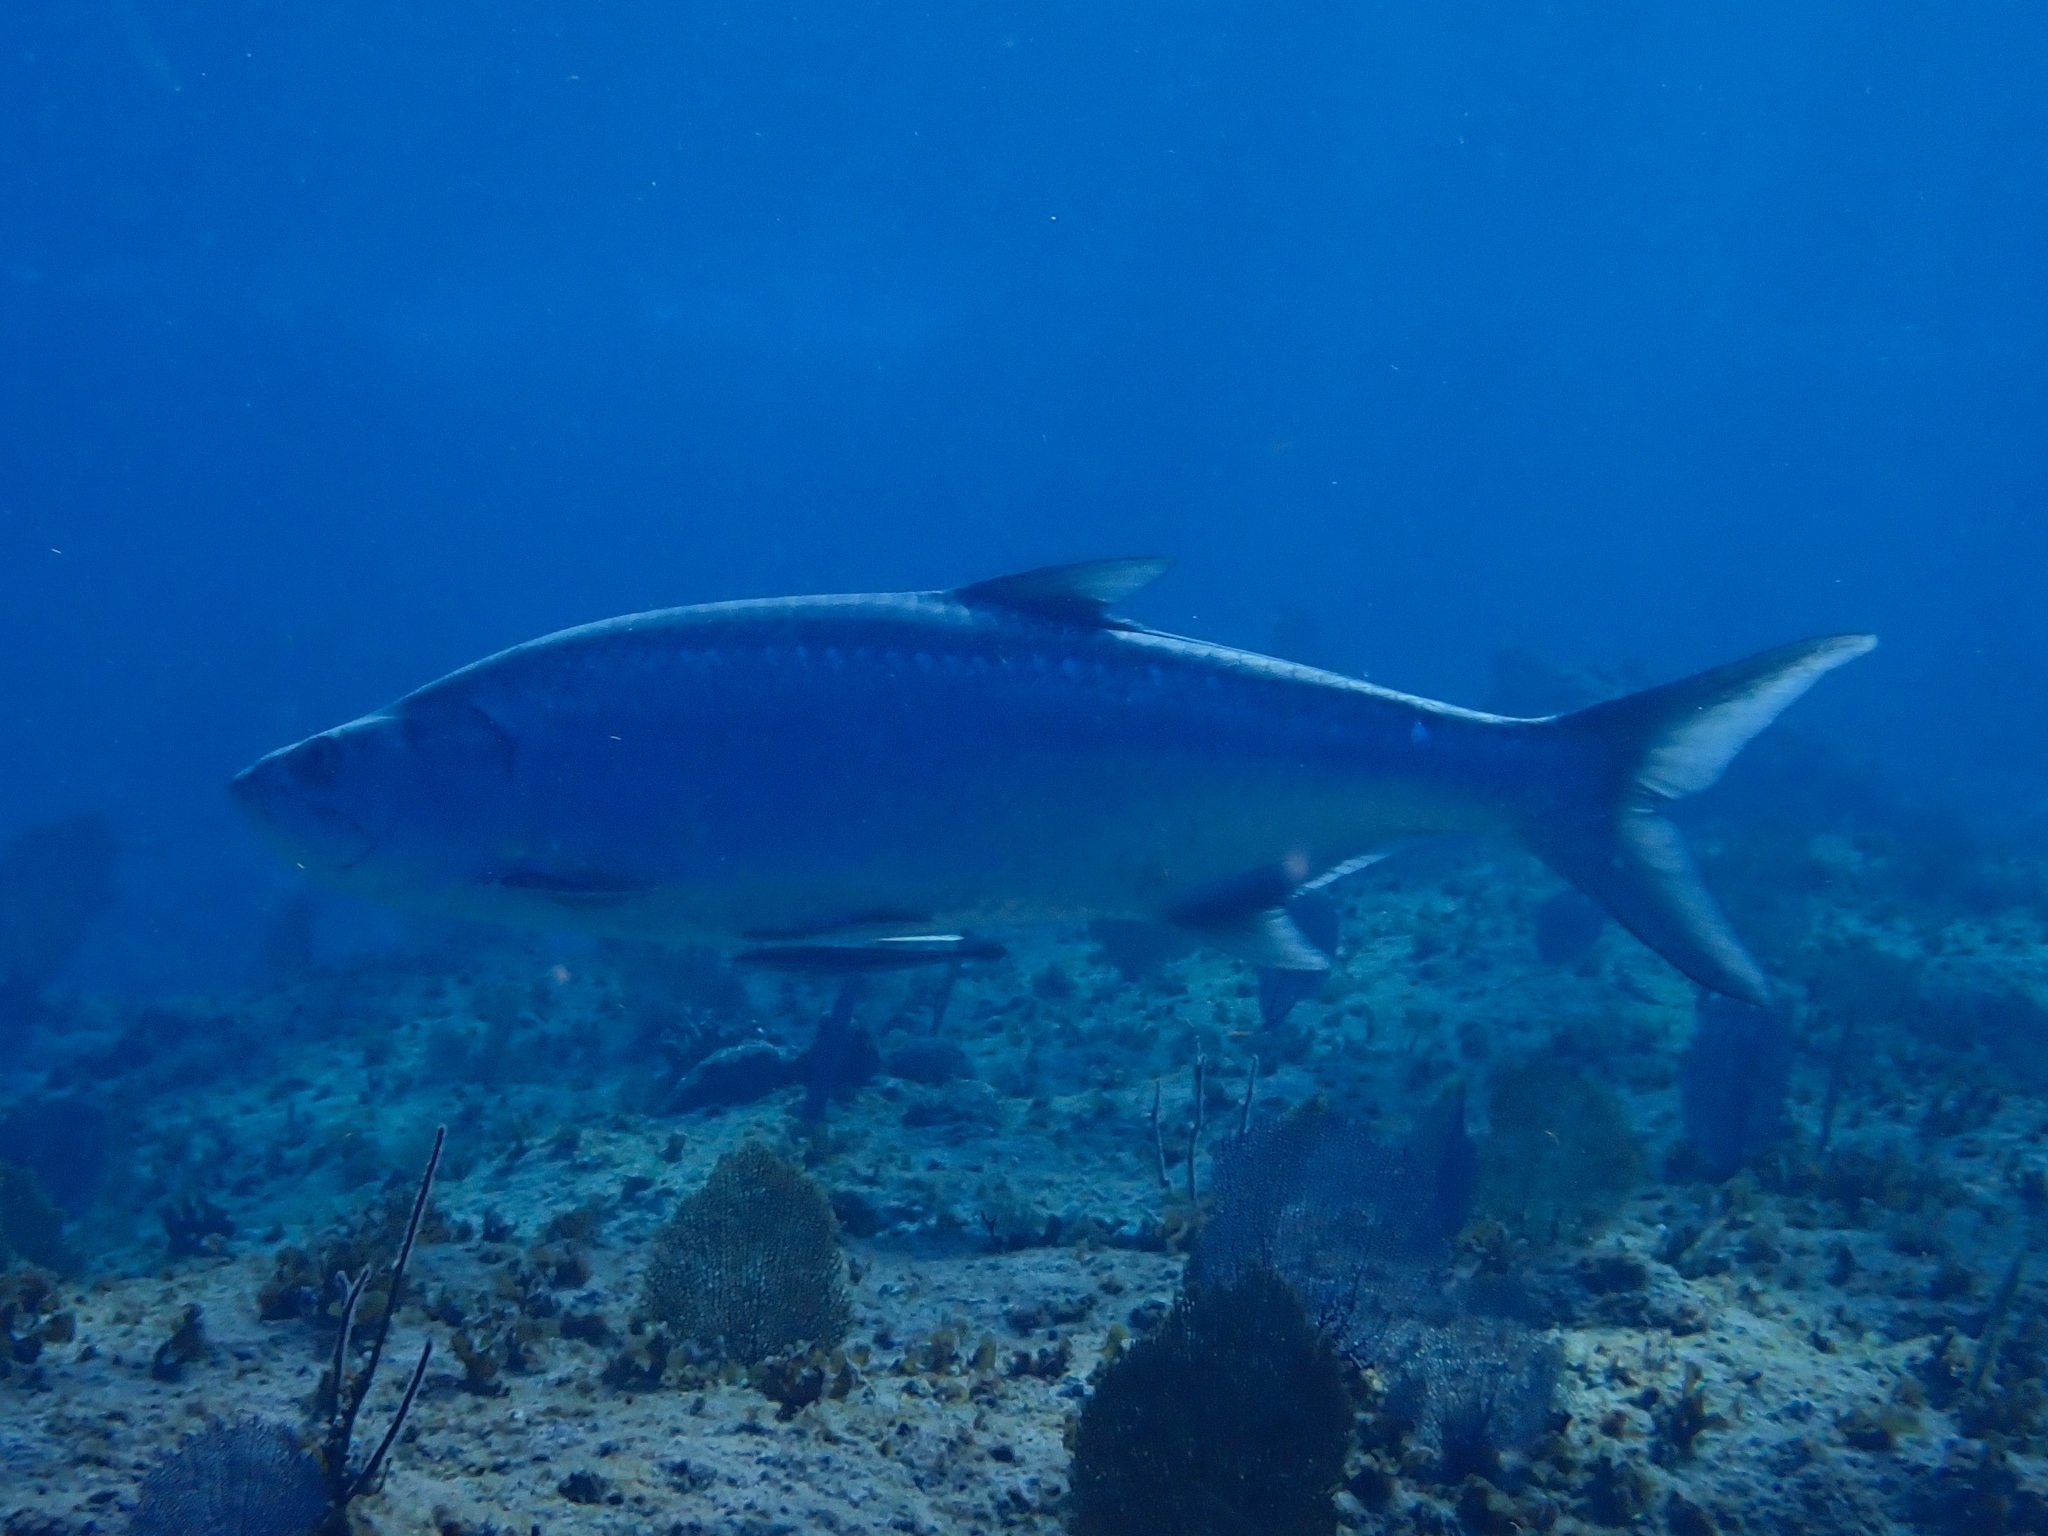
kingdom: Animalia
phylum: Chordata
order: Elopiformes
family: Megalopidae
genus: Megalops
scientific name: Megalops atlanticus
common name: Tarpon
